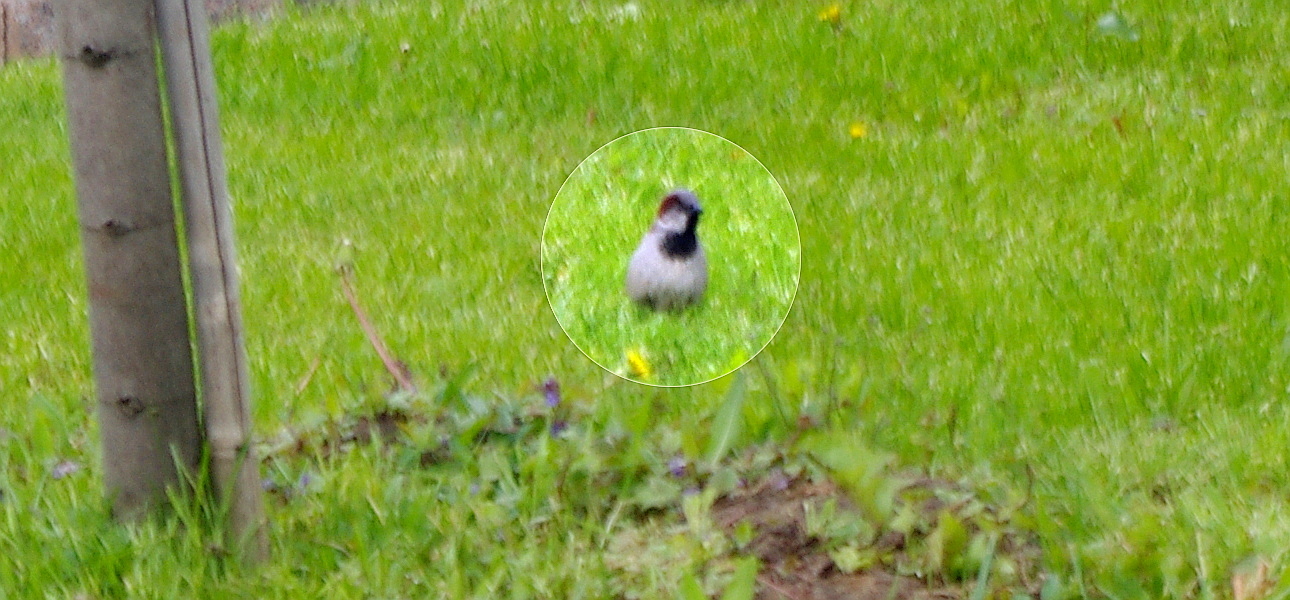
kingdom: Animalia
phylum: Chordata
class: Aves
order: Passeriformes
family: Passeridae
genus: Passer
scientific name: Passer domesticus
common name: House sparrow
